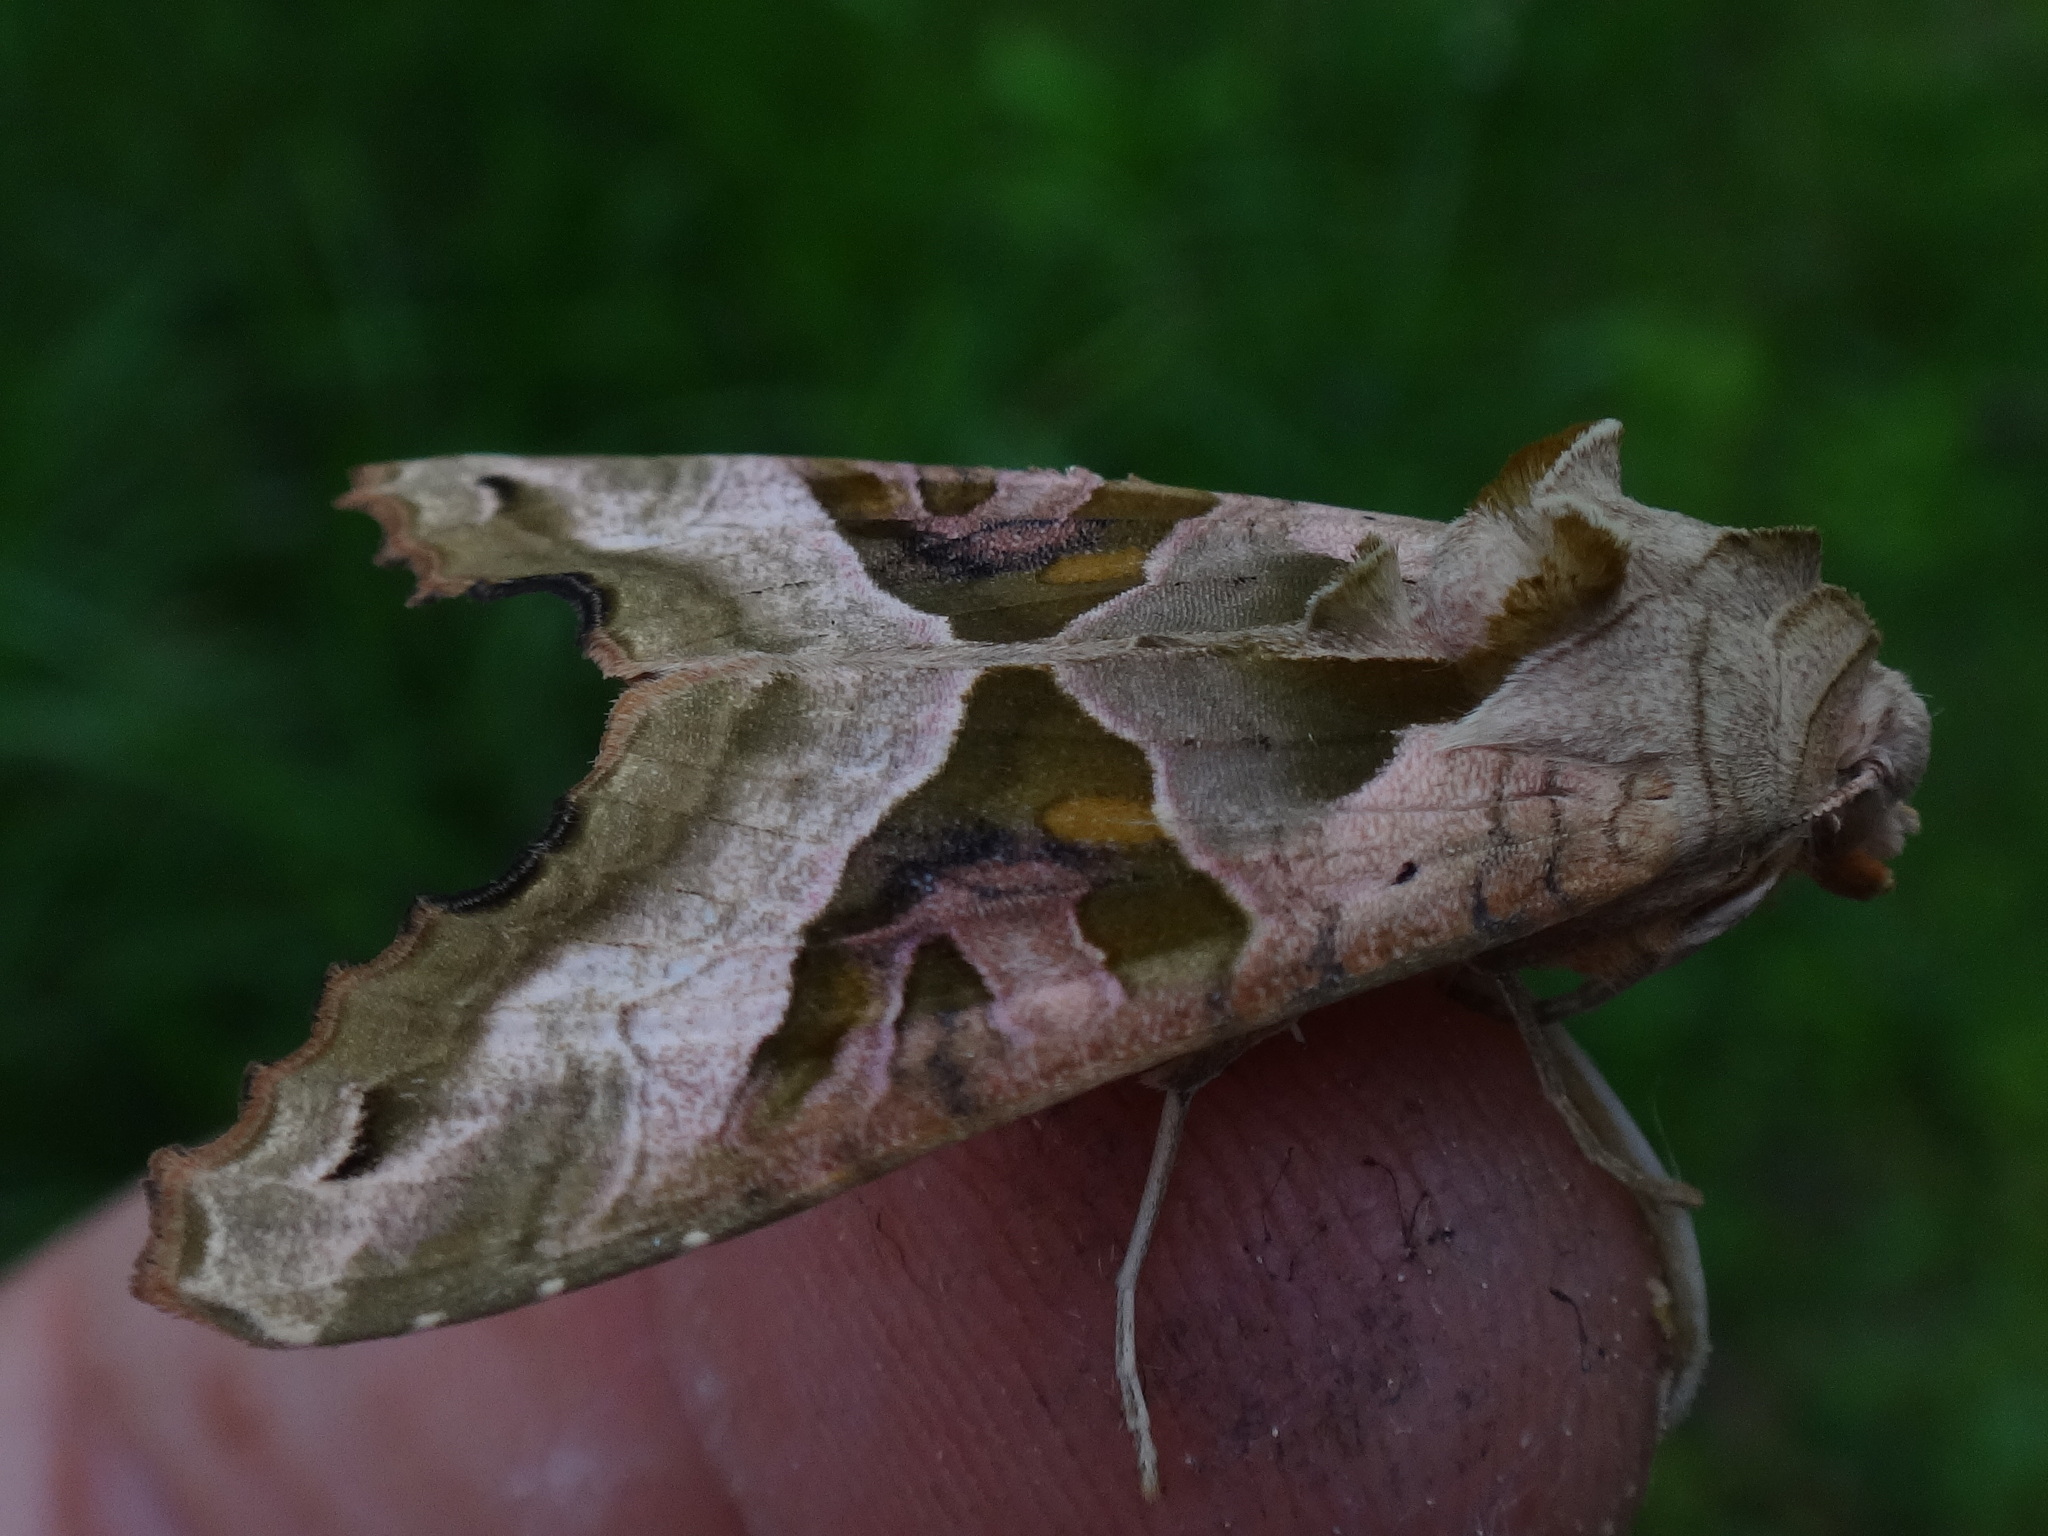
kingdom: Animalia
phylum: Arthropoda
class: Insecta
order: Lepidoptera
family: Noctuidae
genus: Phlogophora
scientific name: Phlogophora meticulosa
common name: Angle shades
